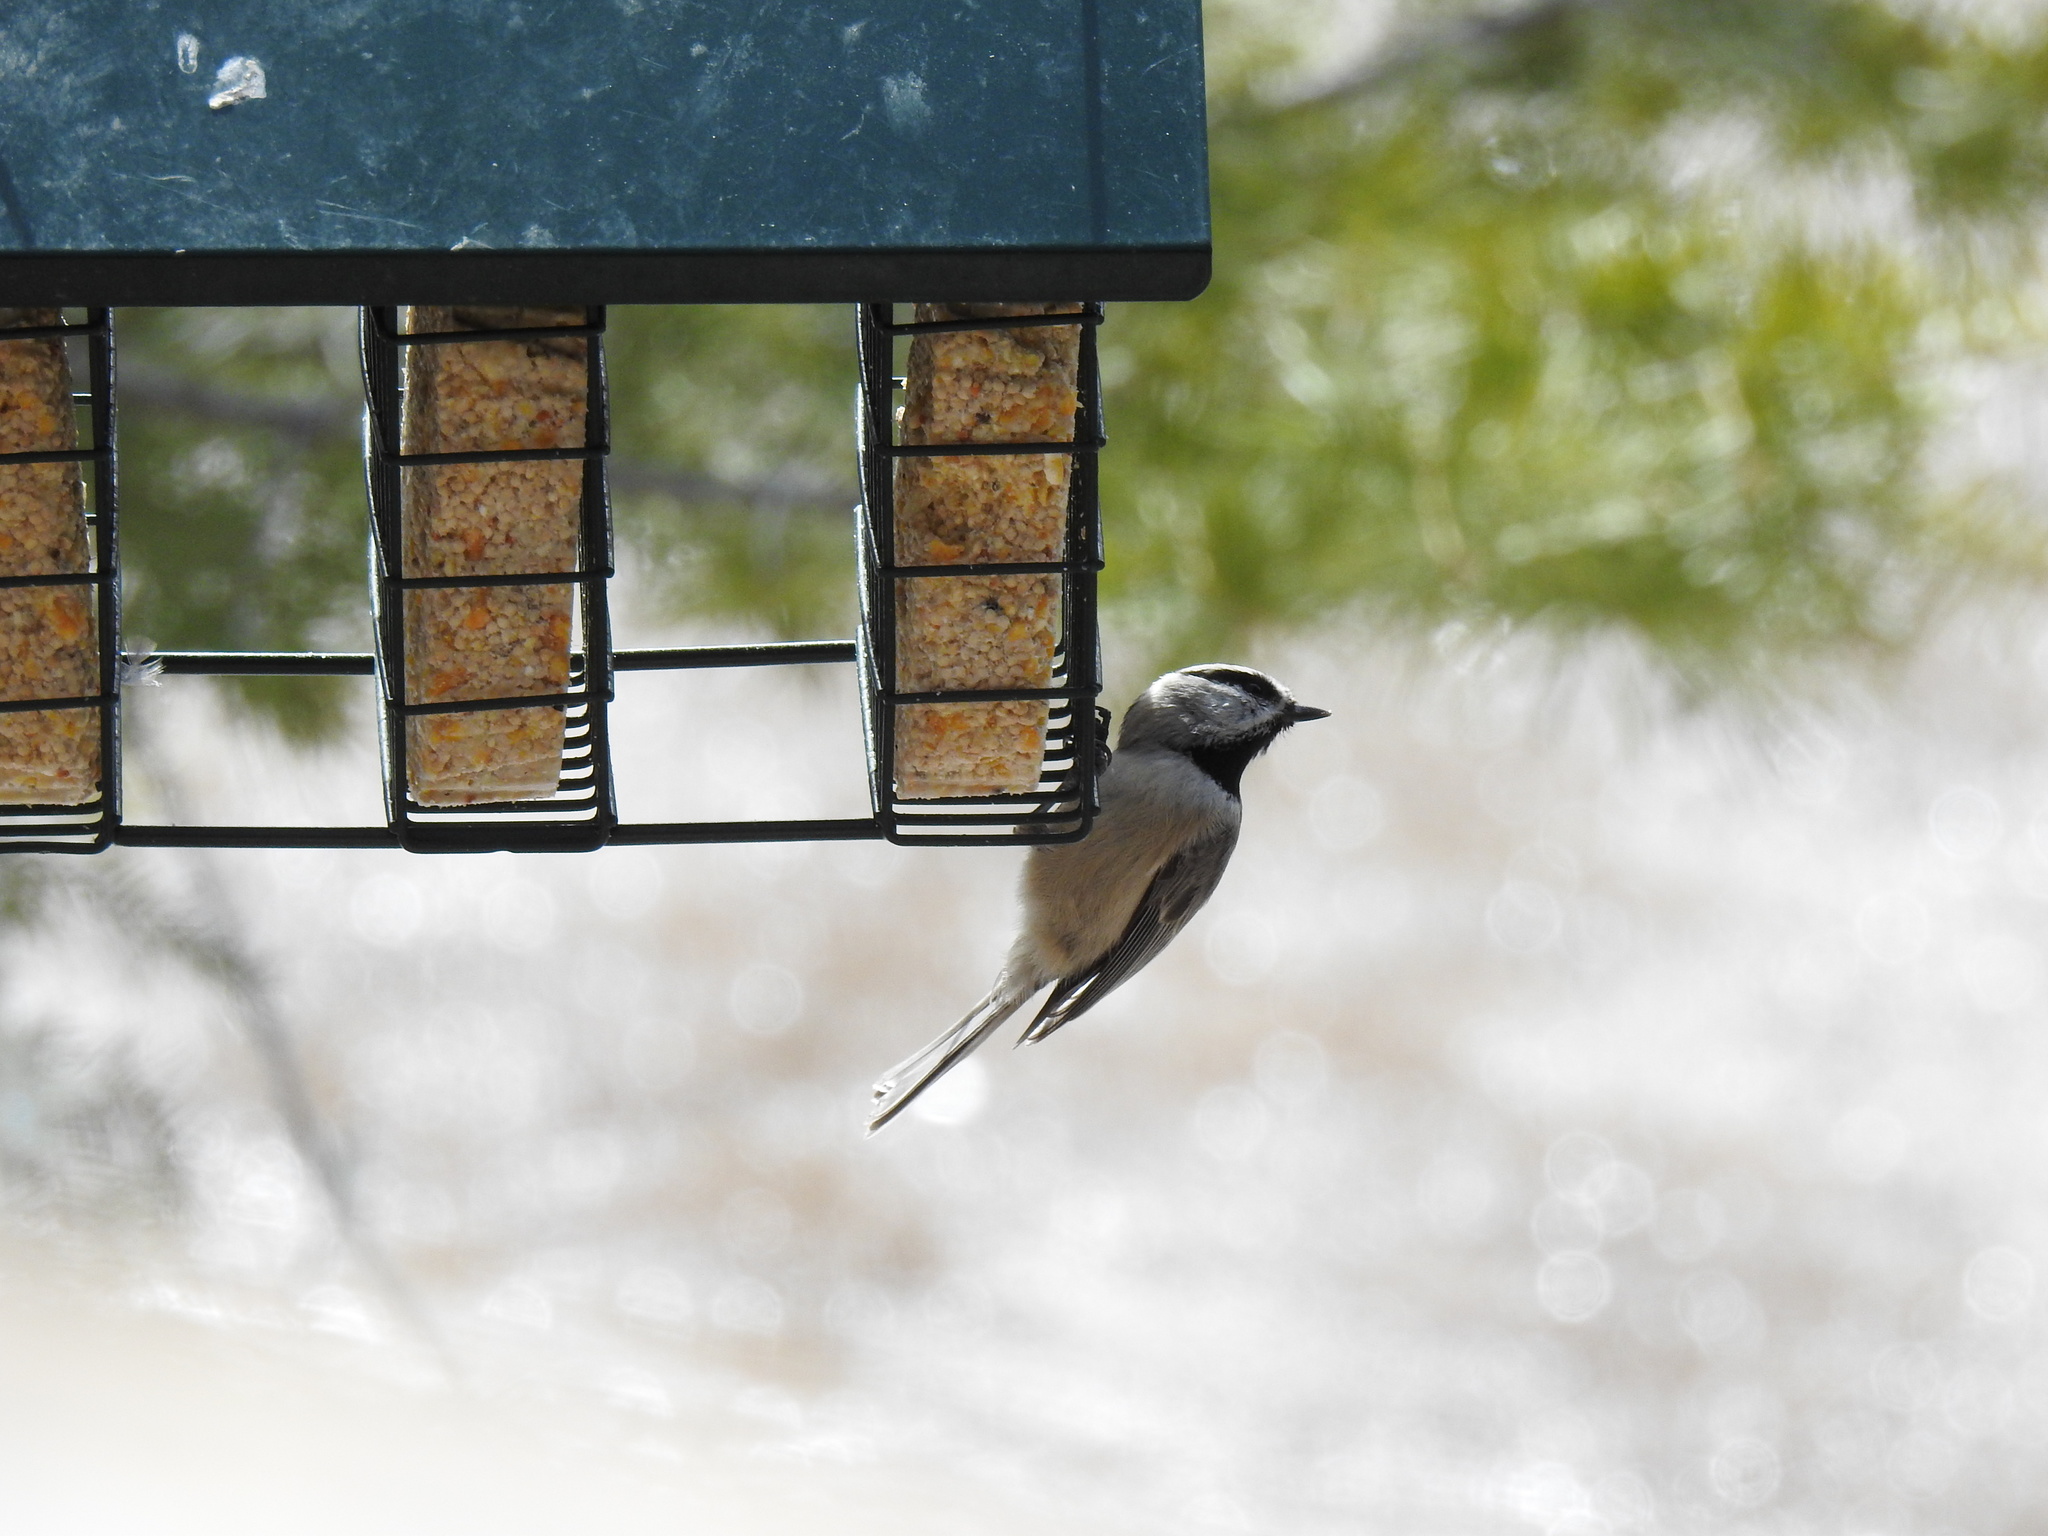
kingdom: Animalia
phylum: Chordata
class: Aves
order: Passeriformes
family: Paridae
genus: Poecile
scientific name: Poecile gambeli
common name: Mountain chickadee
